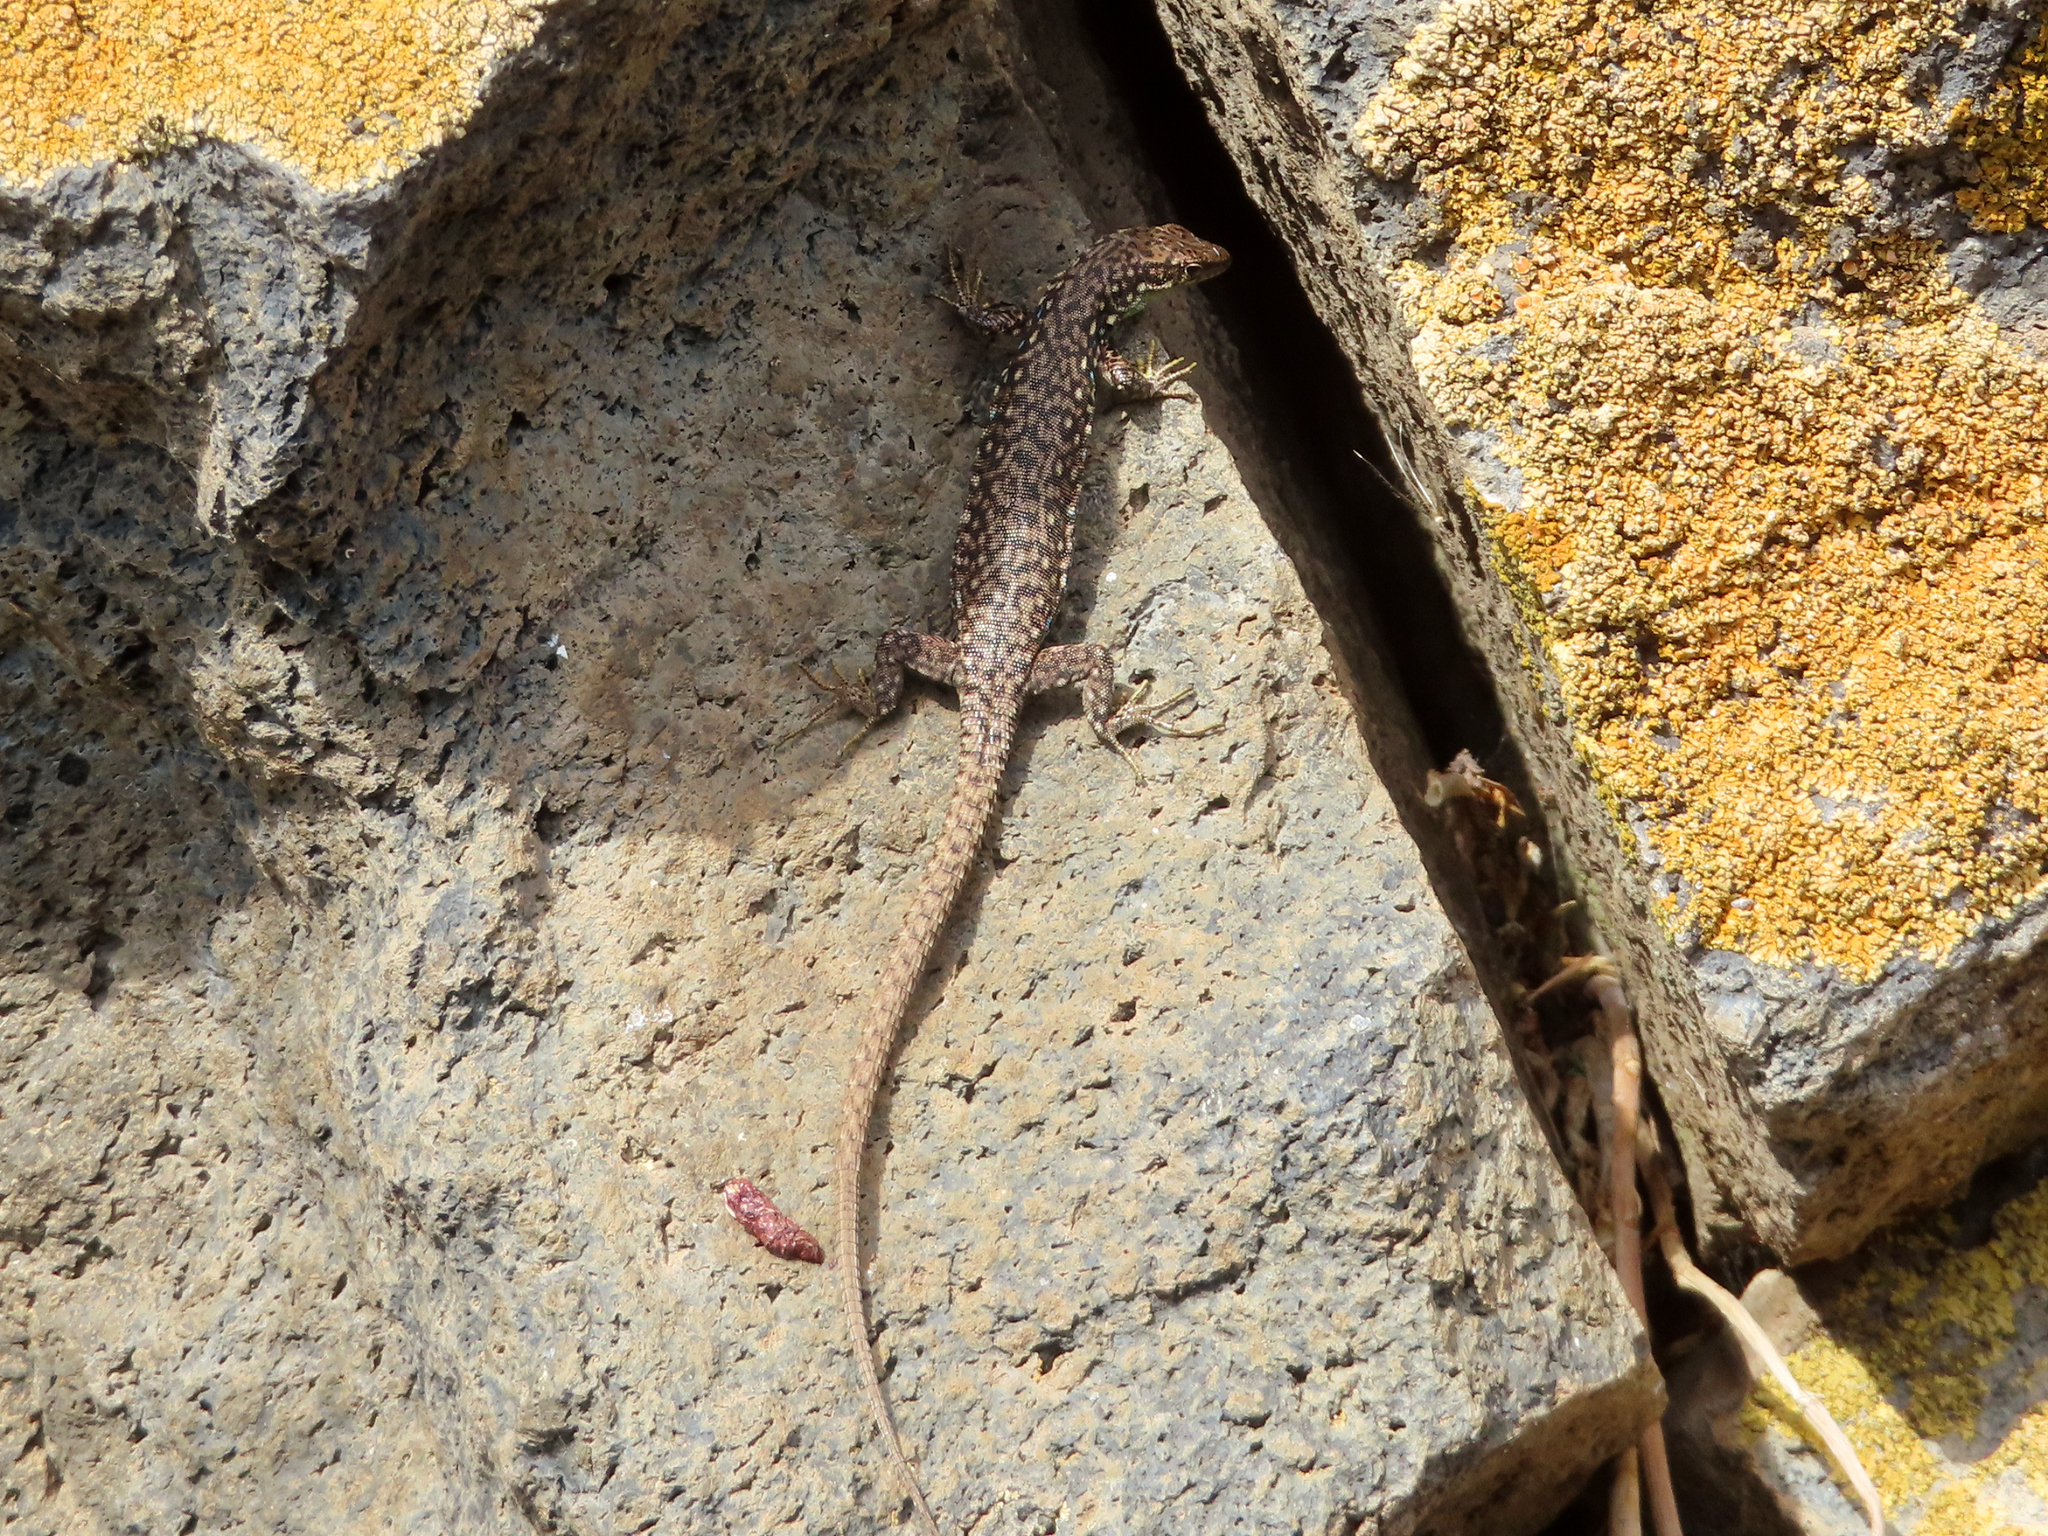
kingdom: Animalia
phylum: Chordata
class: Squamata
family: Lacertidae
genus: Darevskia
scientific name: Darevskia
